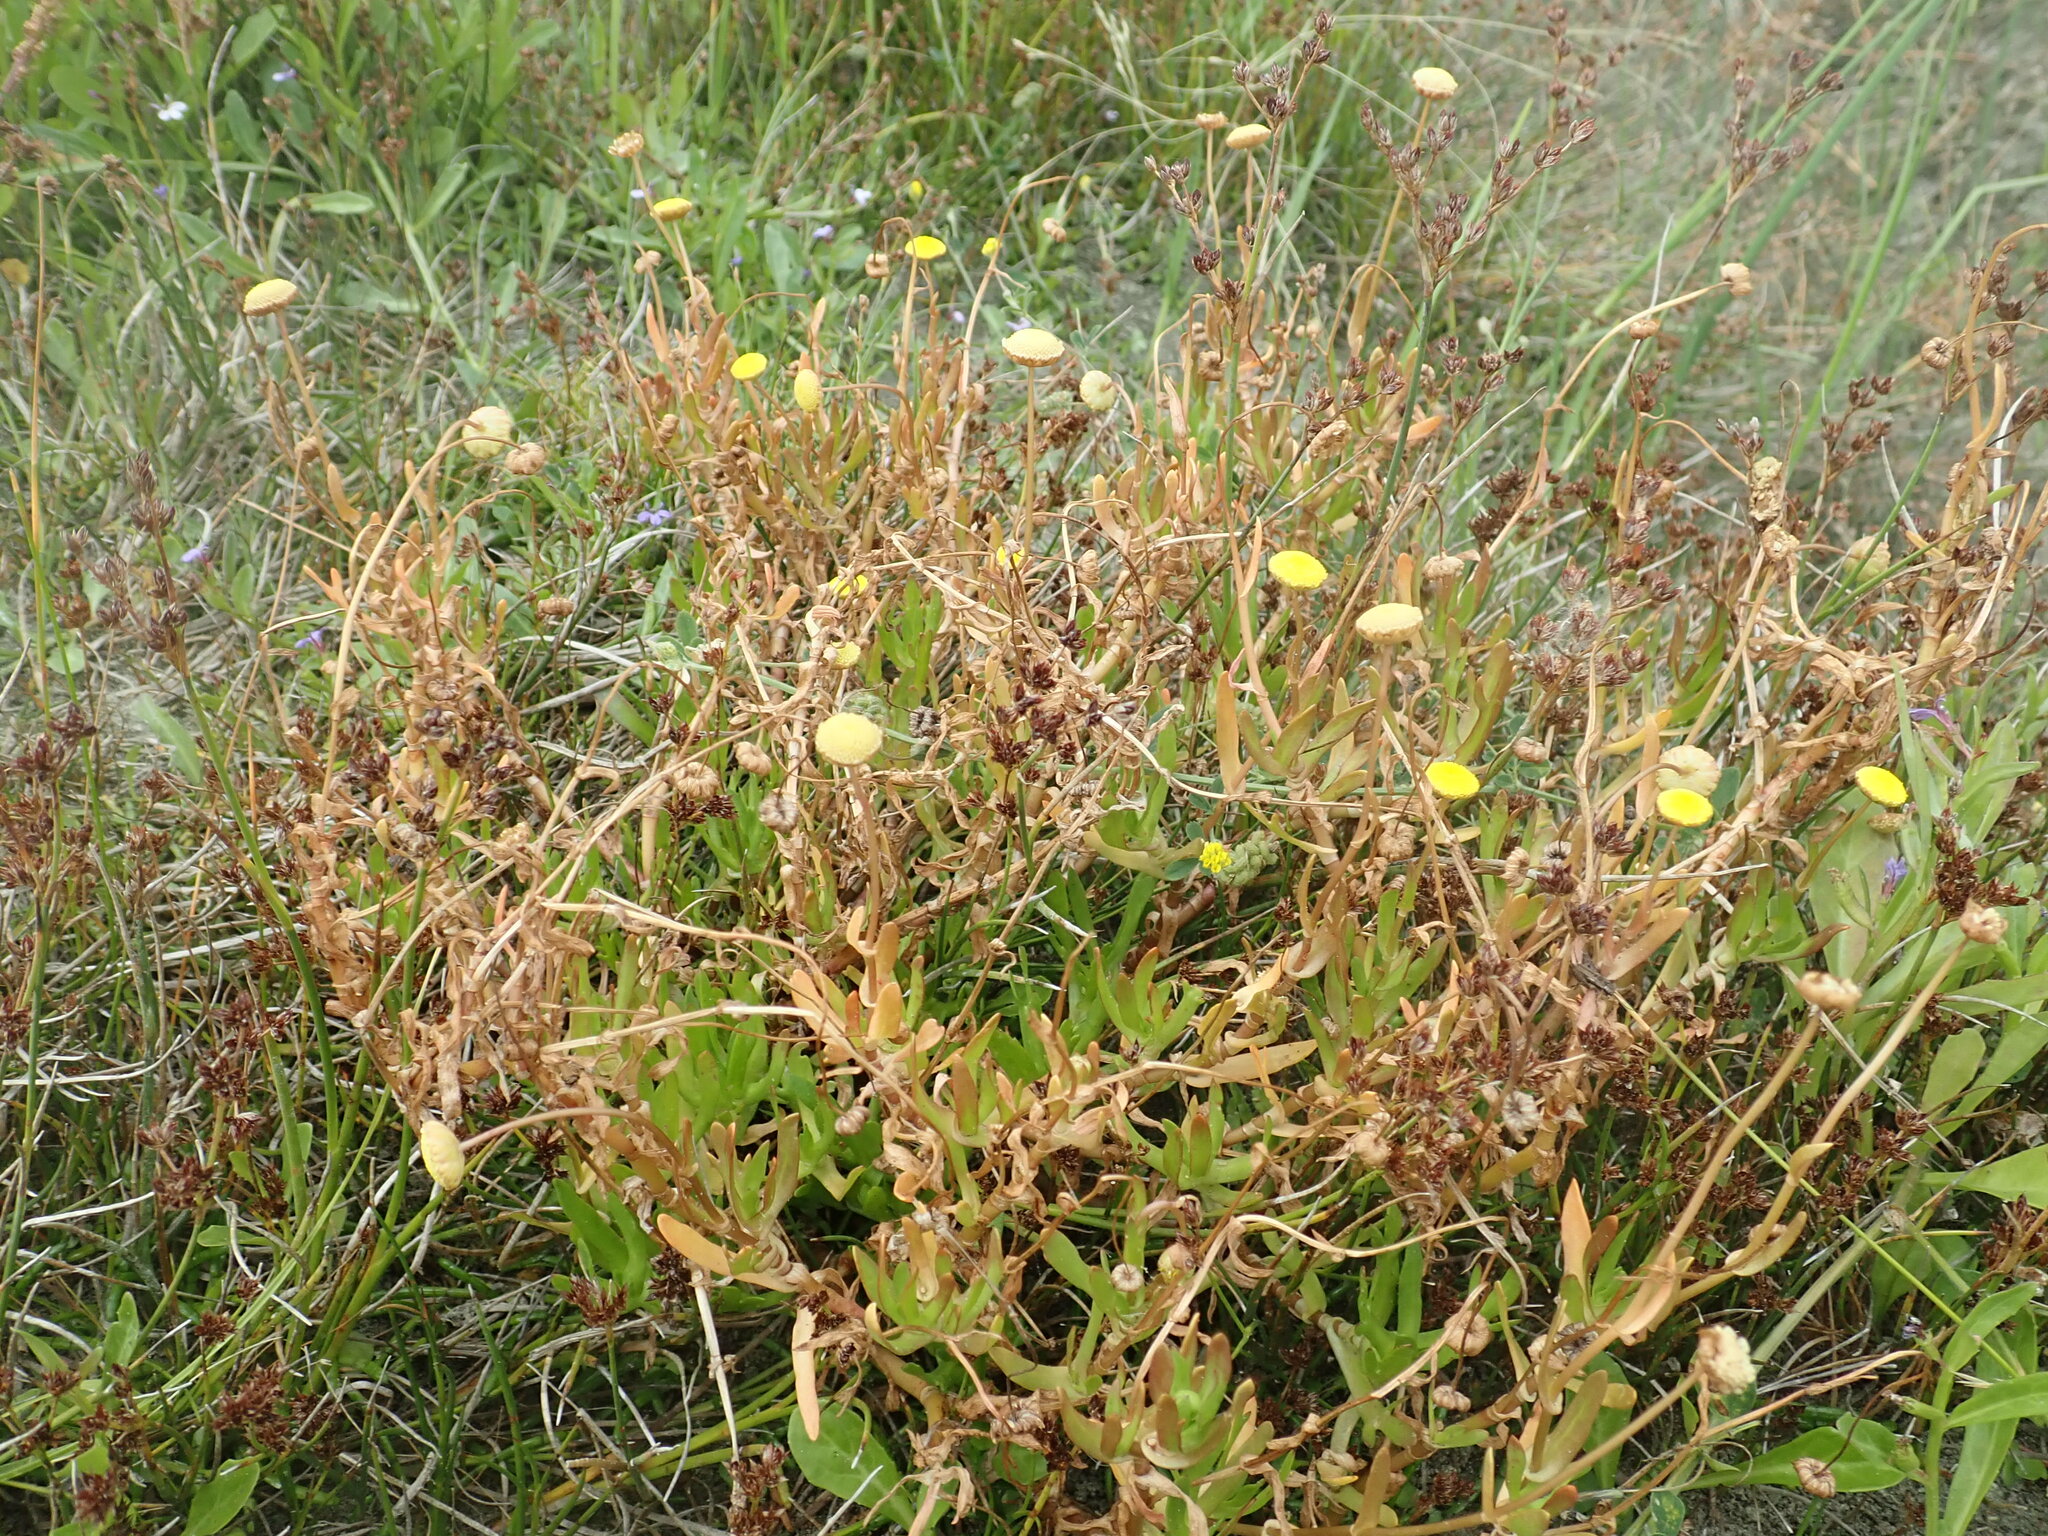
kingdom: Plantae
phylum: Tracheophyta
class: Magnoliopsida
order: Asterales
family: Asteraceae
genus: Cotula
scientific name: Cotula coronopifolia
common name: Buttonweed
